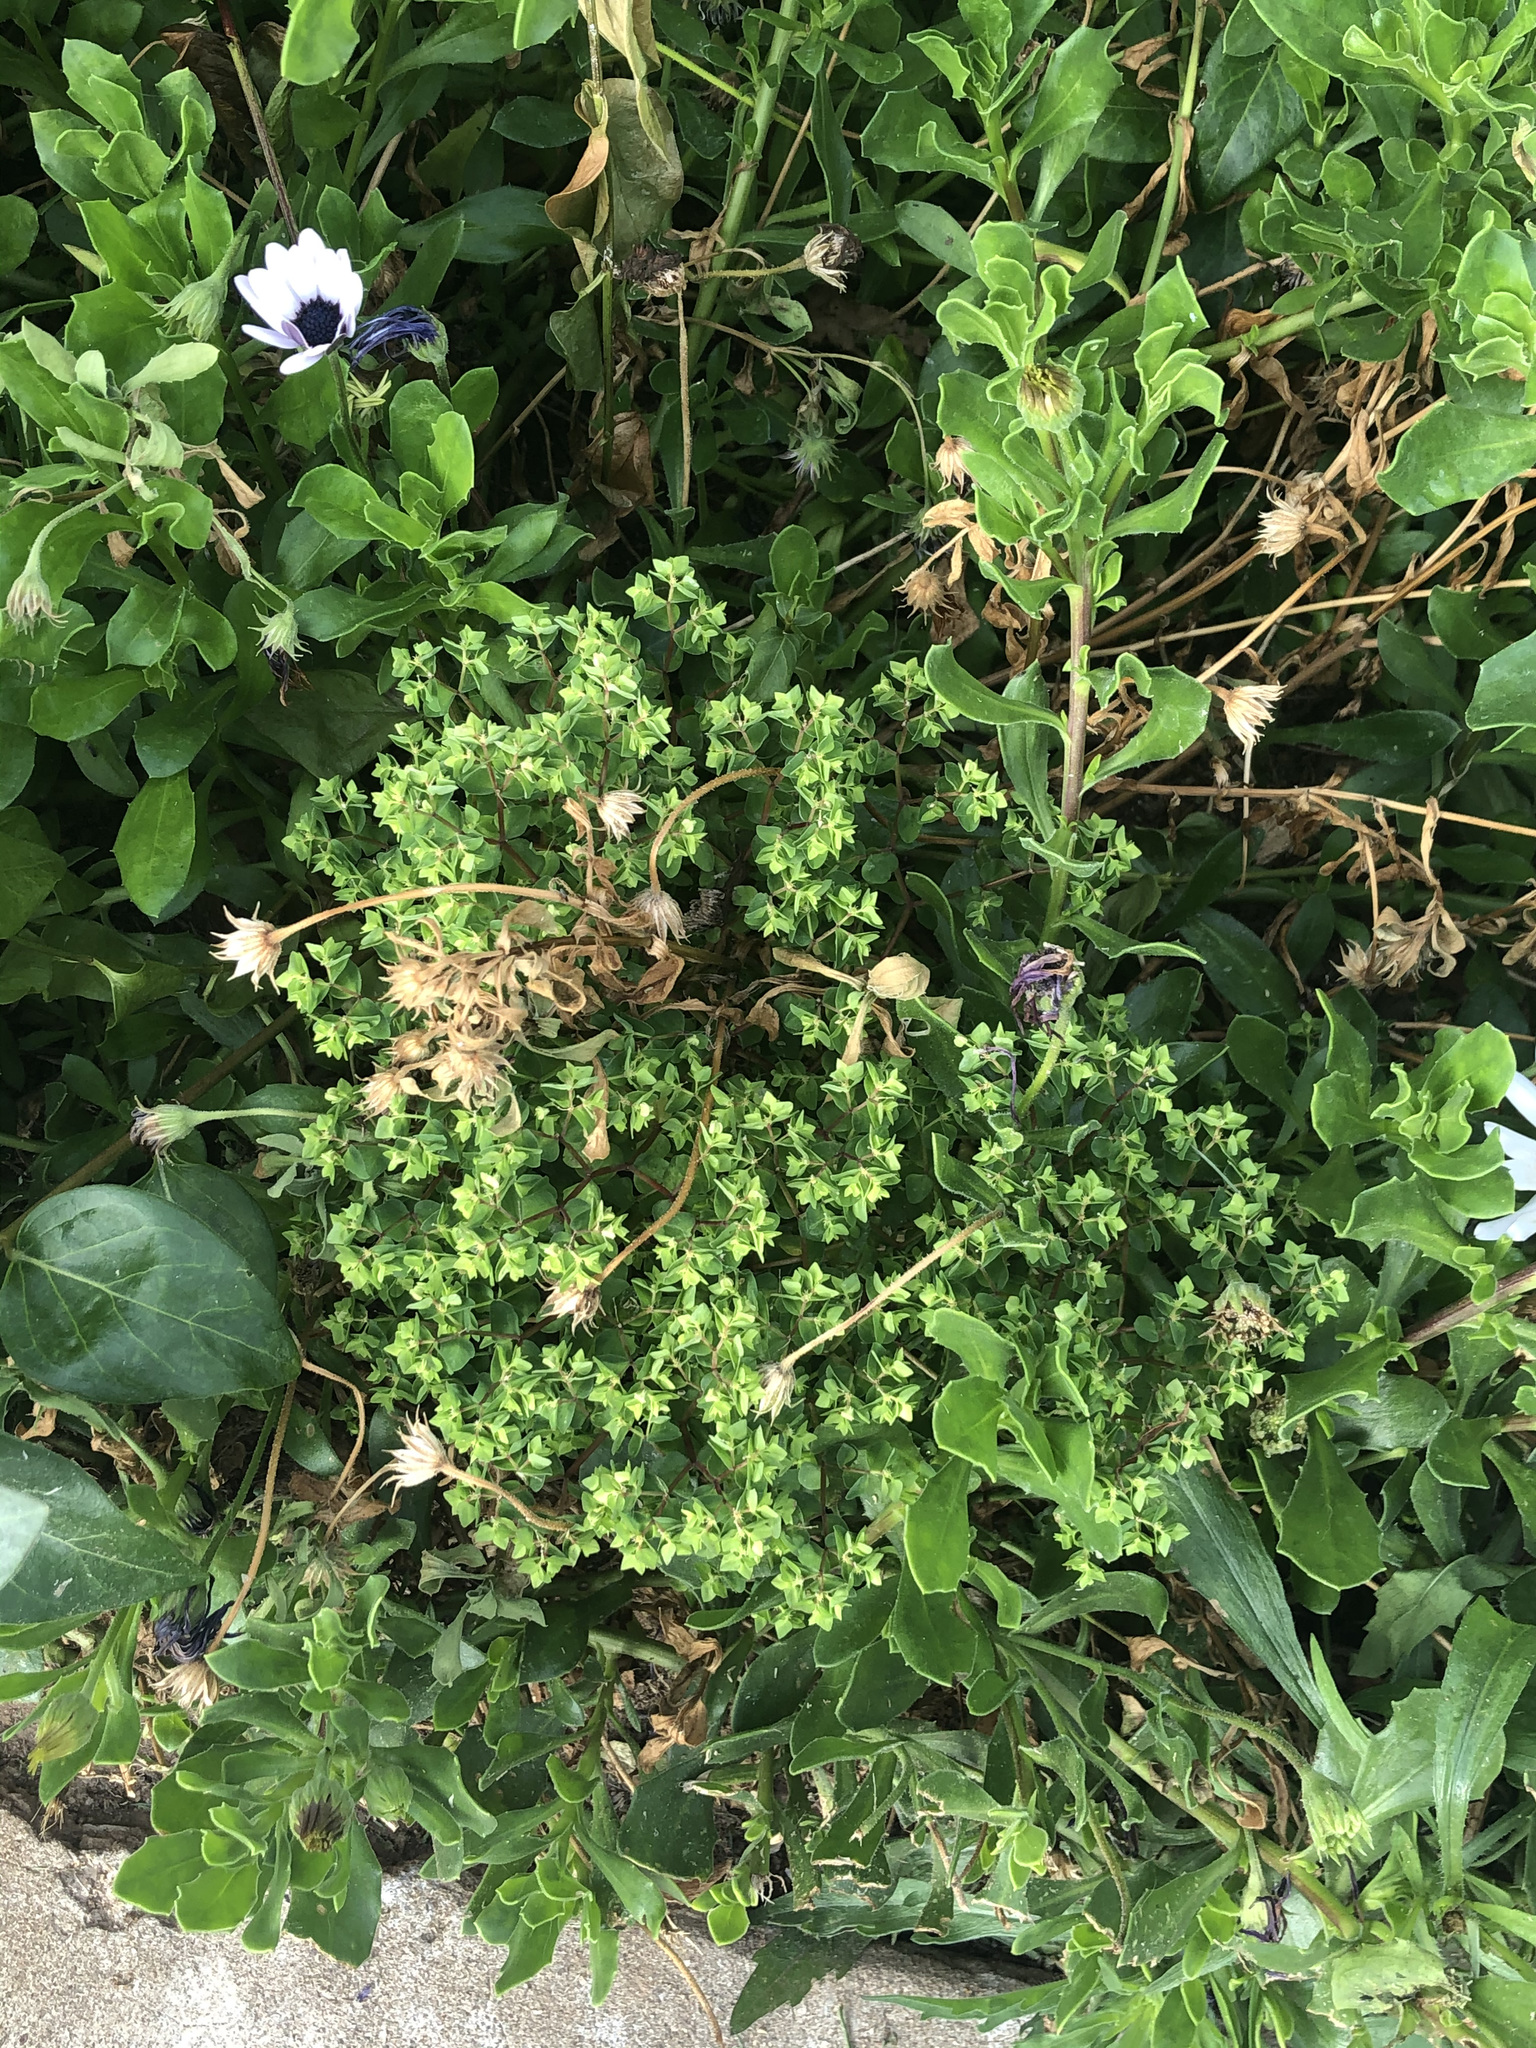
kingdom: Plantae
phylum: Tracheophyta
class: Magnoliopsida
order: Malpighiales
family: Euphorbiaceae
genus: Euphorbia
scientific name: Euphorbia peplus
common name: Petty spurge
